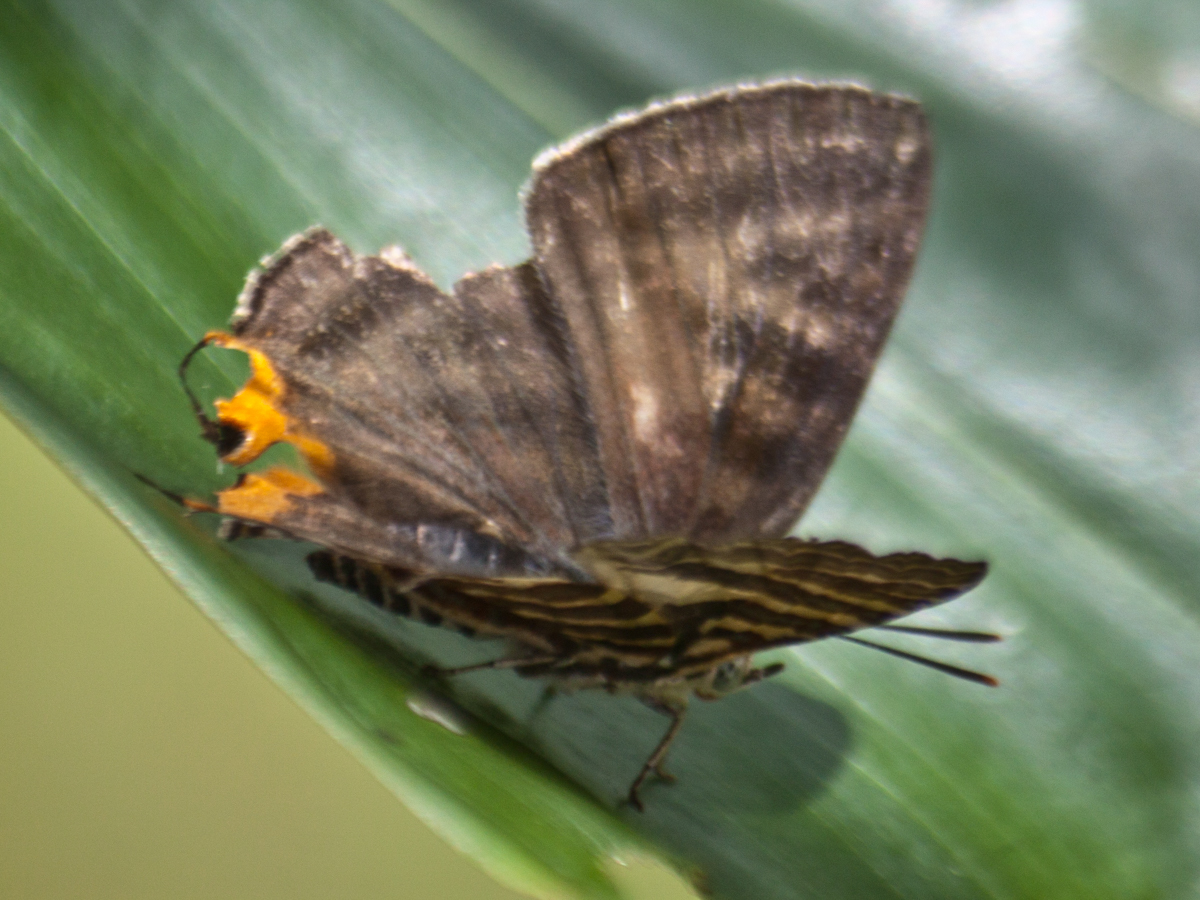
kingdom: Animalia
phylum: Arthropoda
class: Insecta
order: Lepidoptera
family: Lycaenidae
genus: Cigaritis
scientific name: Cigaritis lohita
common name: Long-banded silverline
